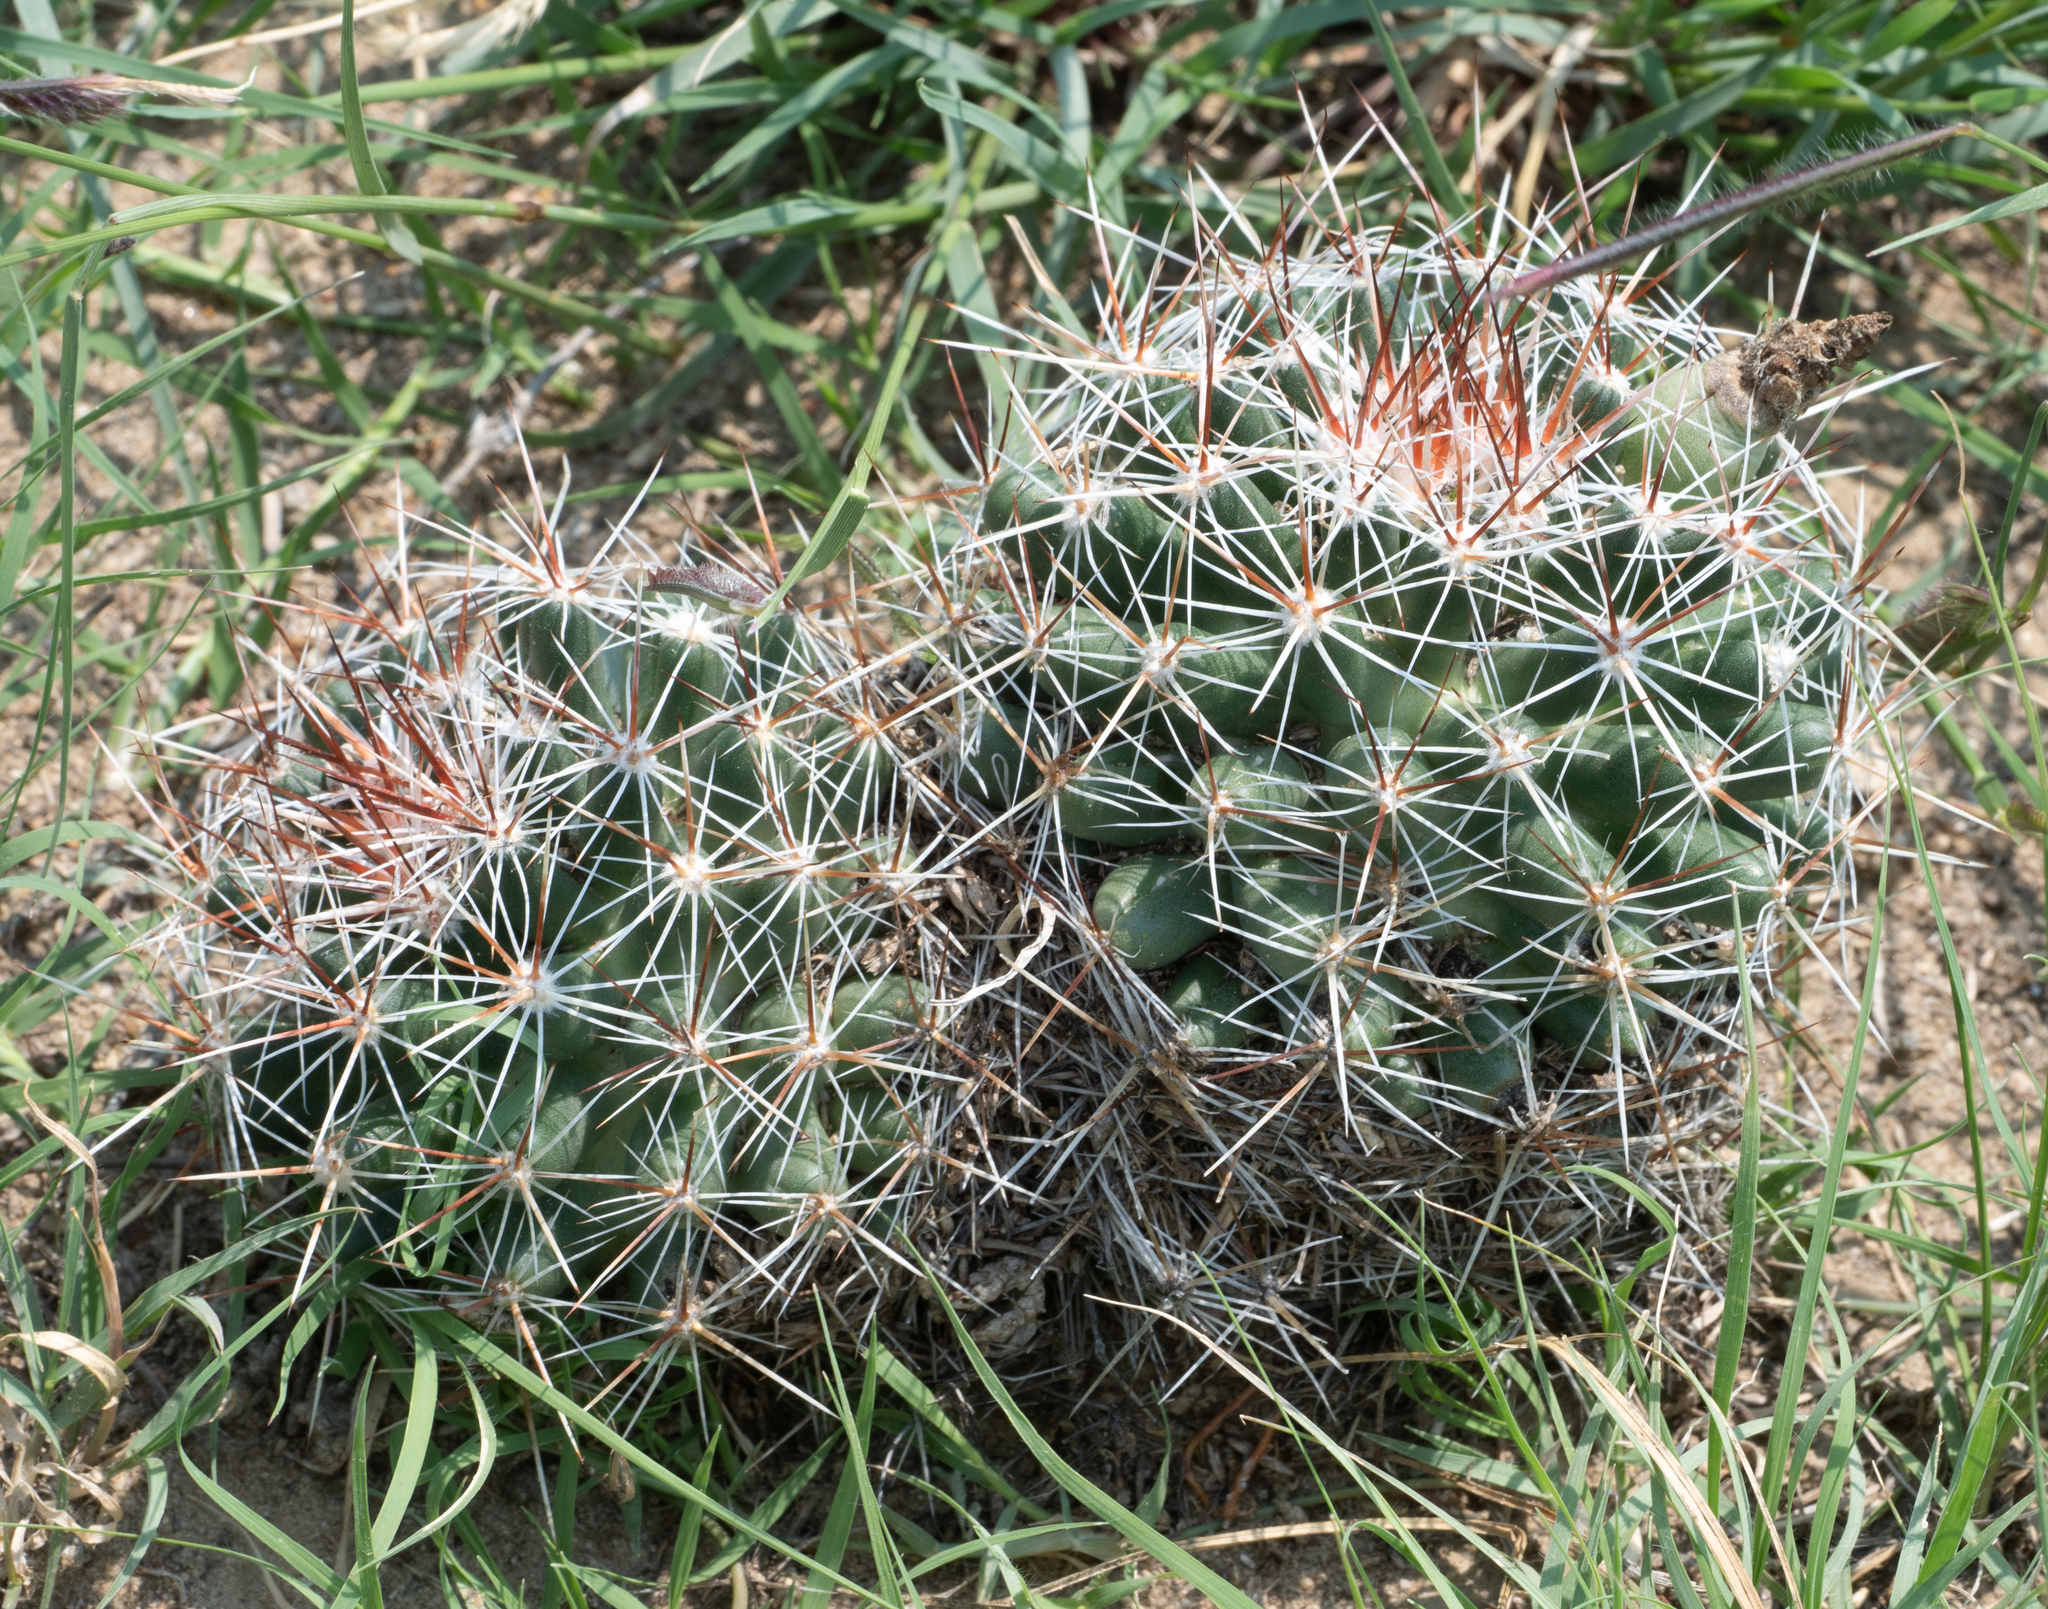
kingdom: Plantae
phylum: Tracheophyta
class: Magnoliopsida
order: Caryophyllales
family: Cactaceae
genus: Pelecyphora
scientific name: Pelecyphora vivipara
